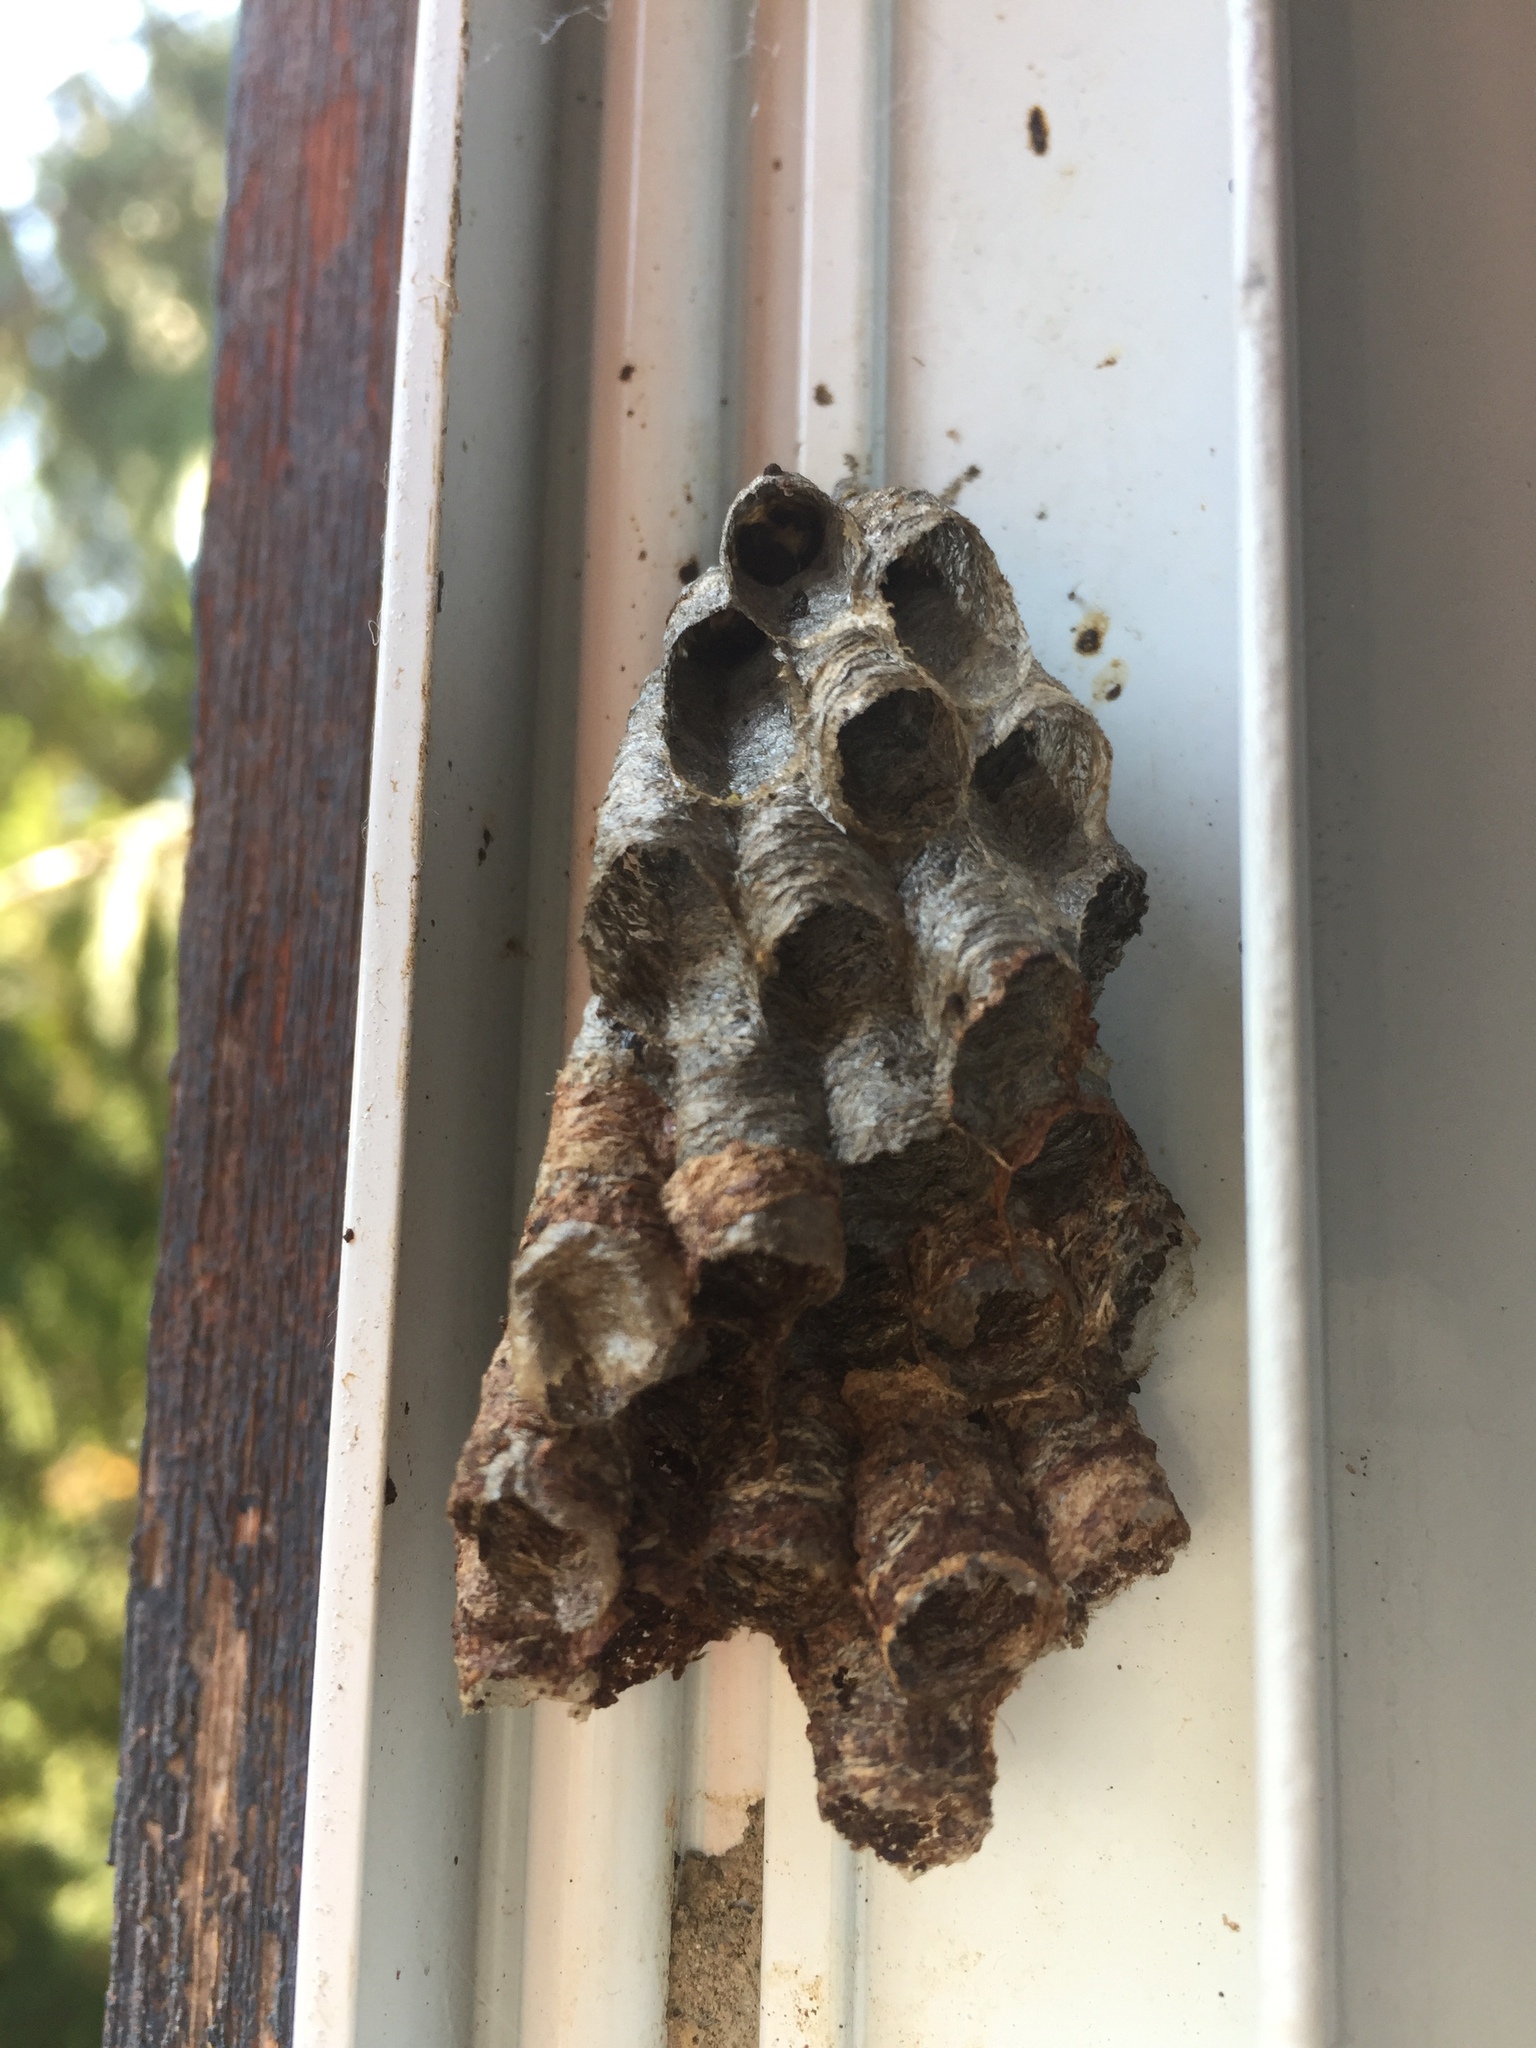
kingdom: Animalia
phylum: Arthropoda
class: Insecta
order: Hymenoptera
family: Vespidae
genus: Mischocyttarus
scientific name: Mischocyttarus flavitarsis
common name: Wasp
